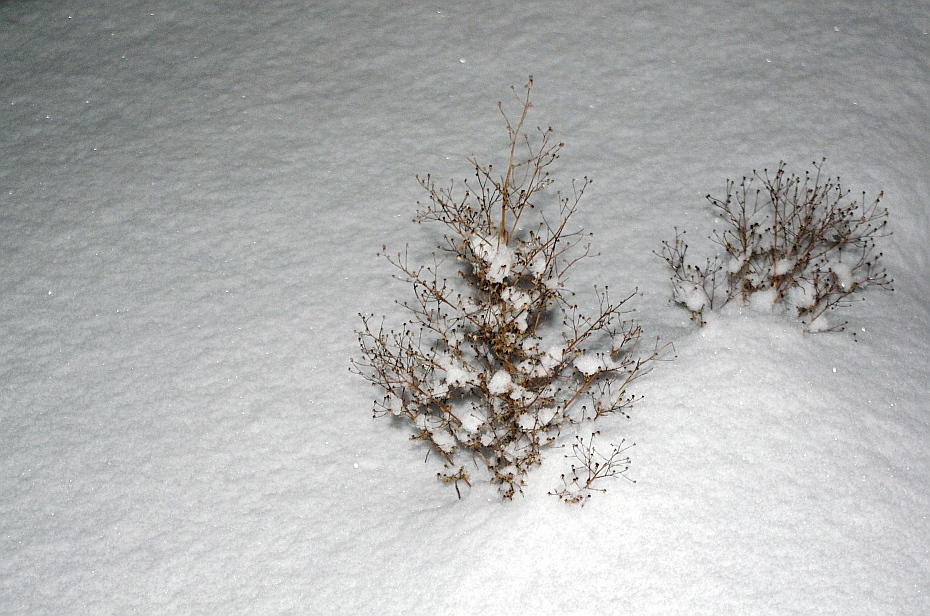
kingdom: Plantae
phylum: Tracheophyta
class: Magnoliopsida
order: Asterales
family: Asteraceae
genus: Erigeron
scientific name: Erigeron canadensis
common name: Canadian fleabane
